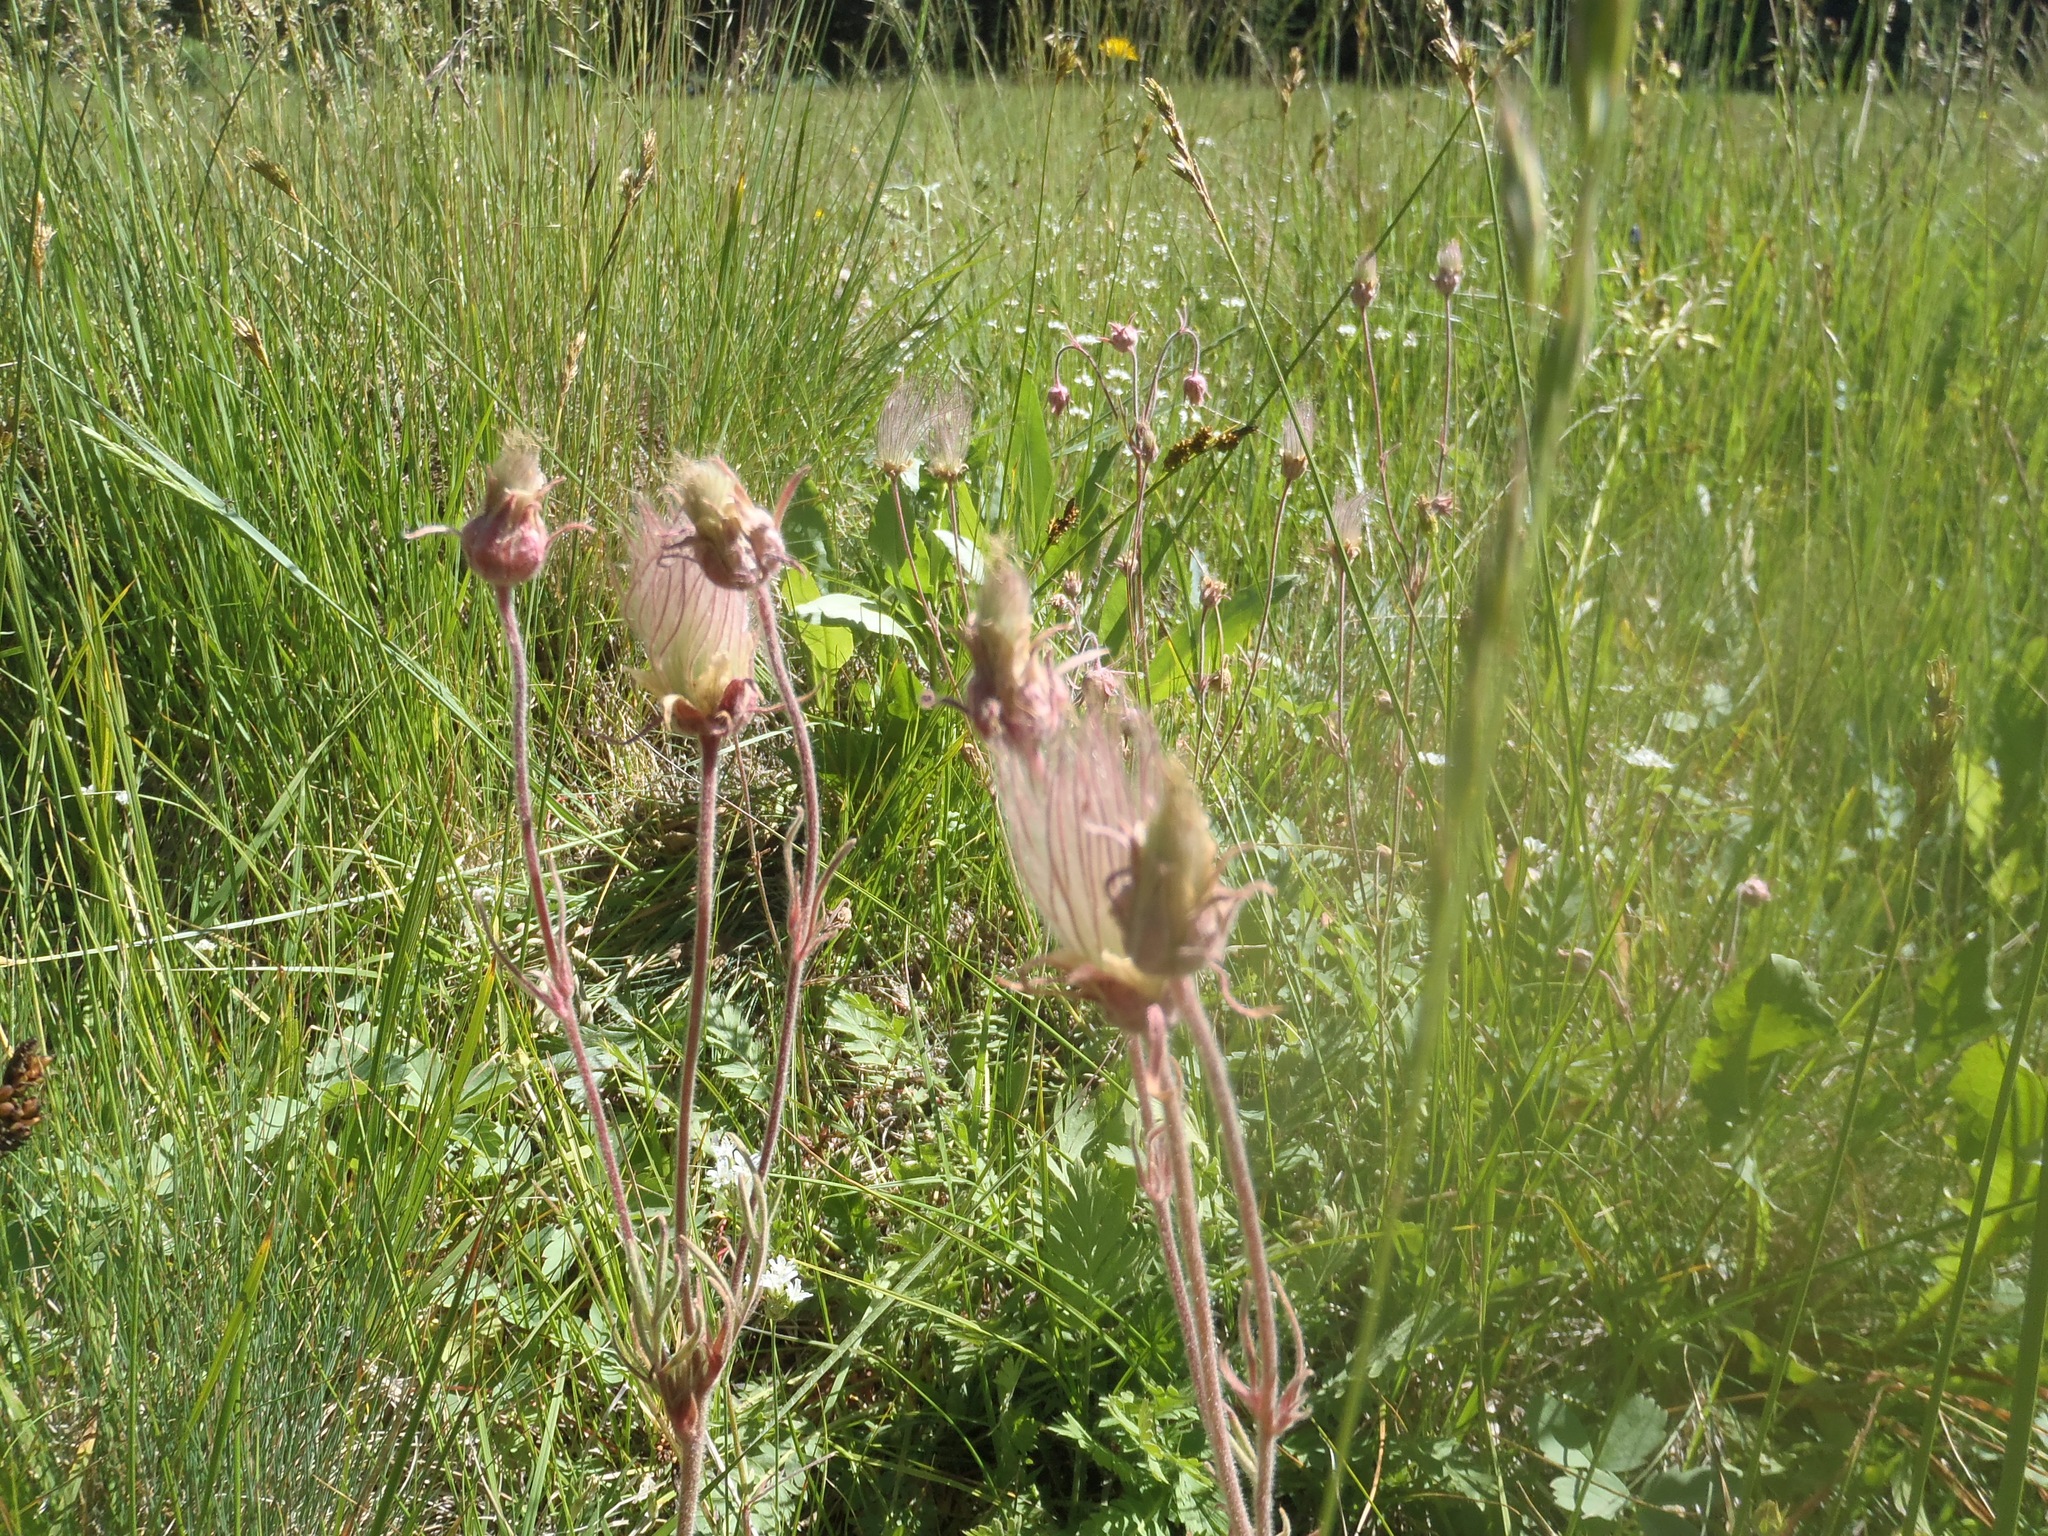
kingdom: Plantae
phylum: Tracheophyta
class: Magnoliopsida
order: Rosales
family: Rosaceae
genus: Geum
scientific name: Geum triflorum
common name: Old man's whiskers
